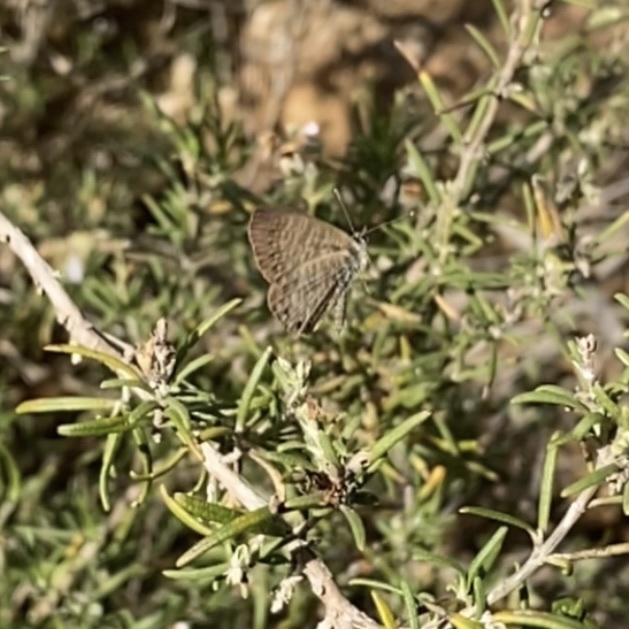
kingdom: Animalia
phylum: Arthropoda
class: Insecta
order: Lepidoptera
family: Lycaenidae
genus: Leptotes
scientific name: Leptotes pirithous
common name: Lang's short-tailed blue
